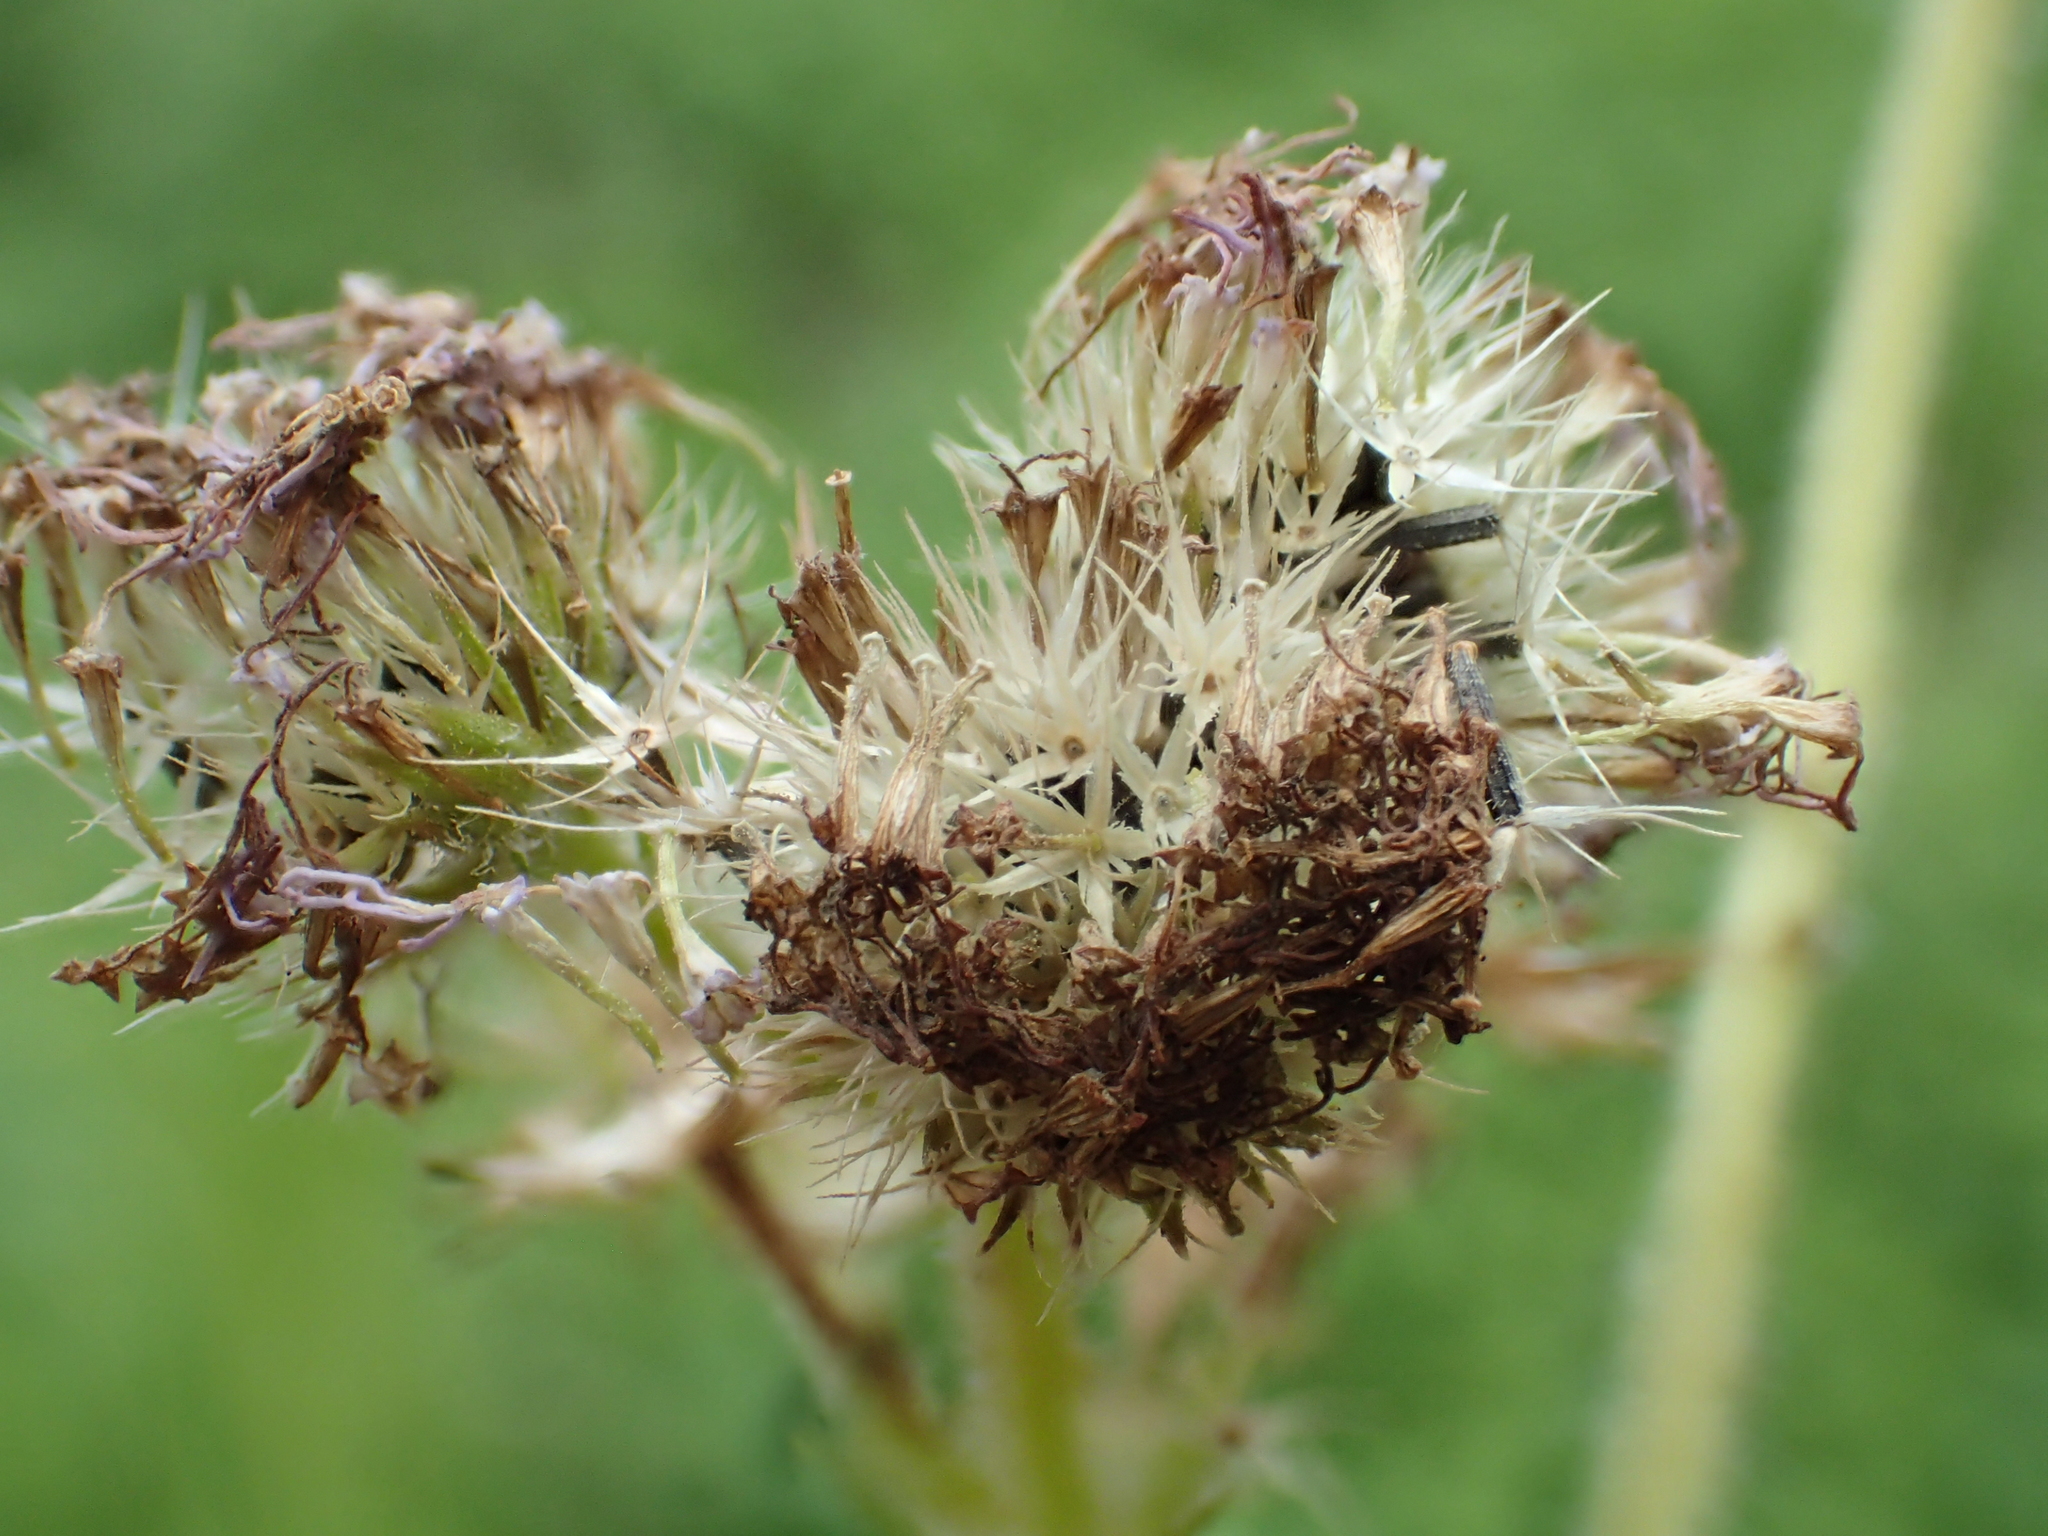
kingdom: Plantae
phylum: Tracheophyta
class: Magnoliopsida
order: Asterales
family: Asteraceae
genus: Ageratum
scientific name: Ageratum houstonianum
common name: Bluemink
